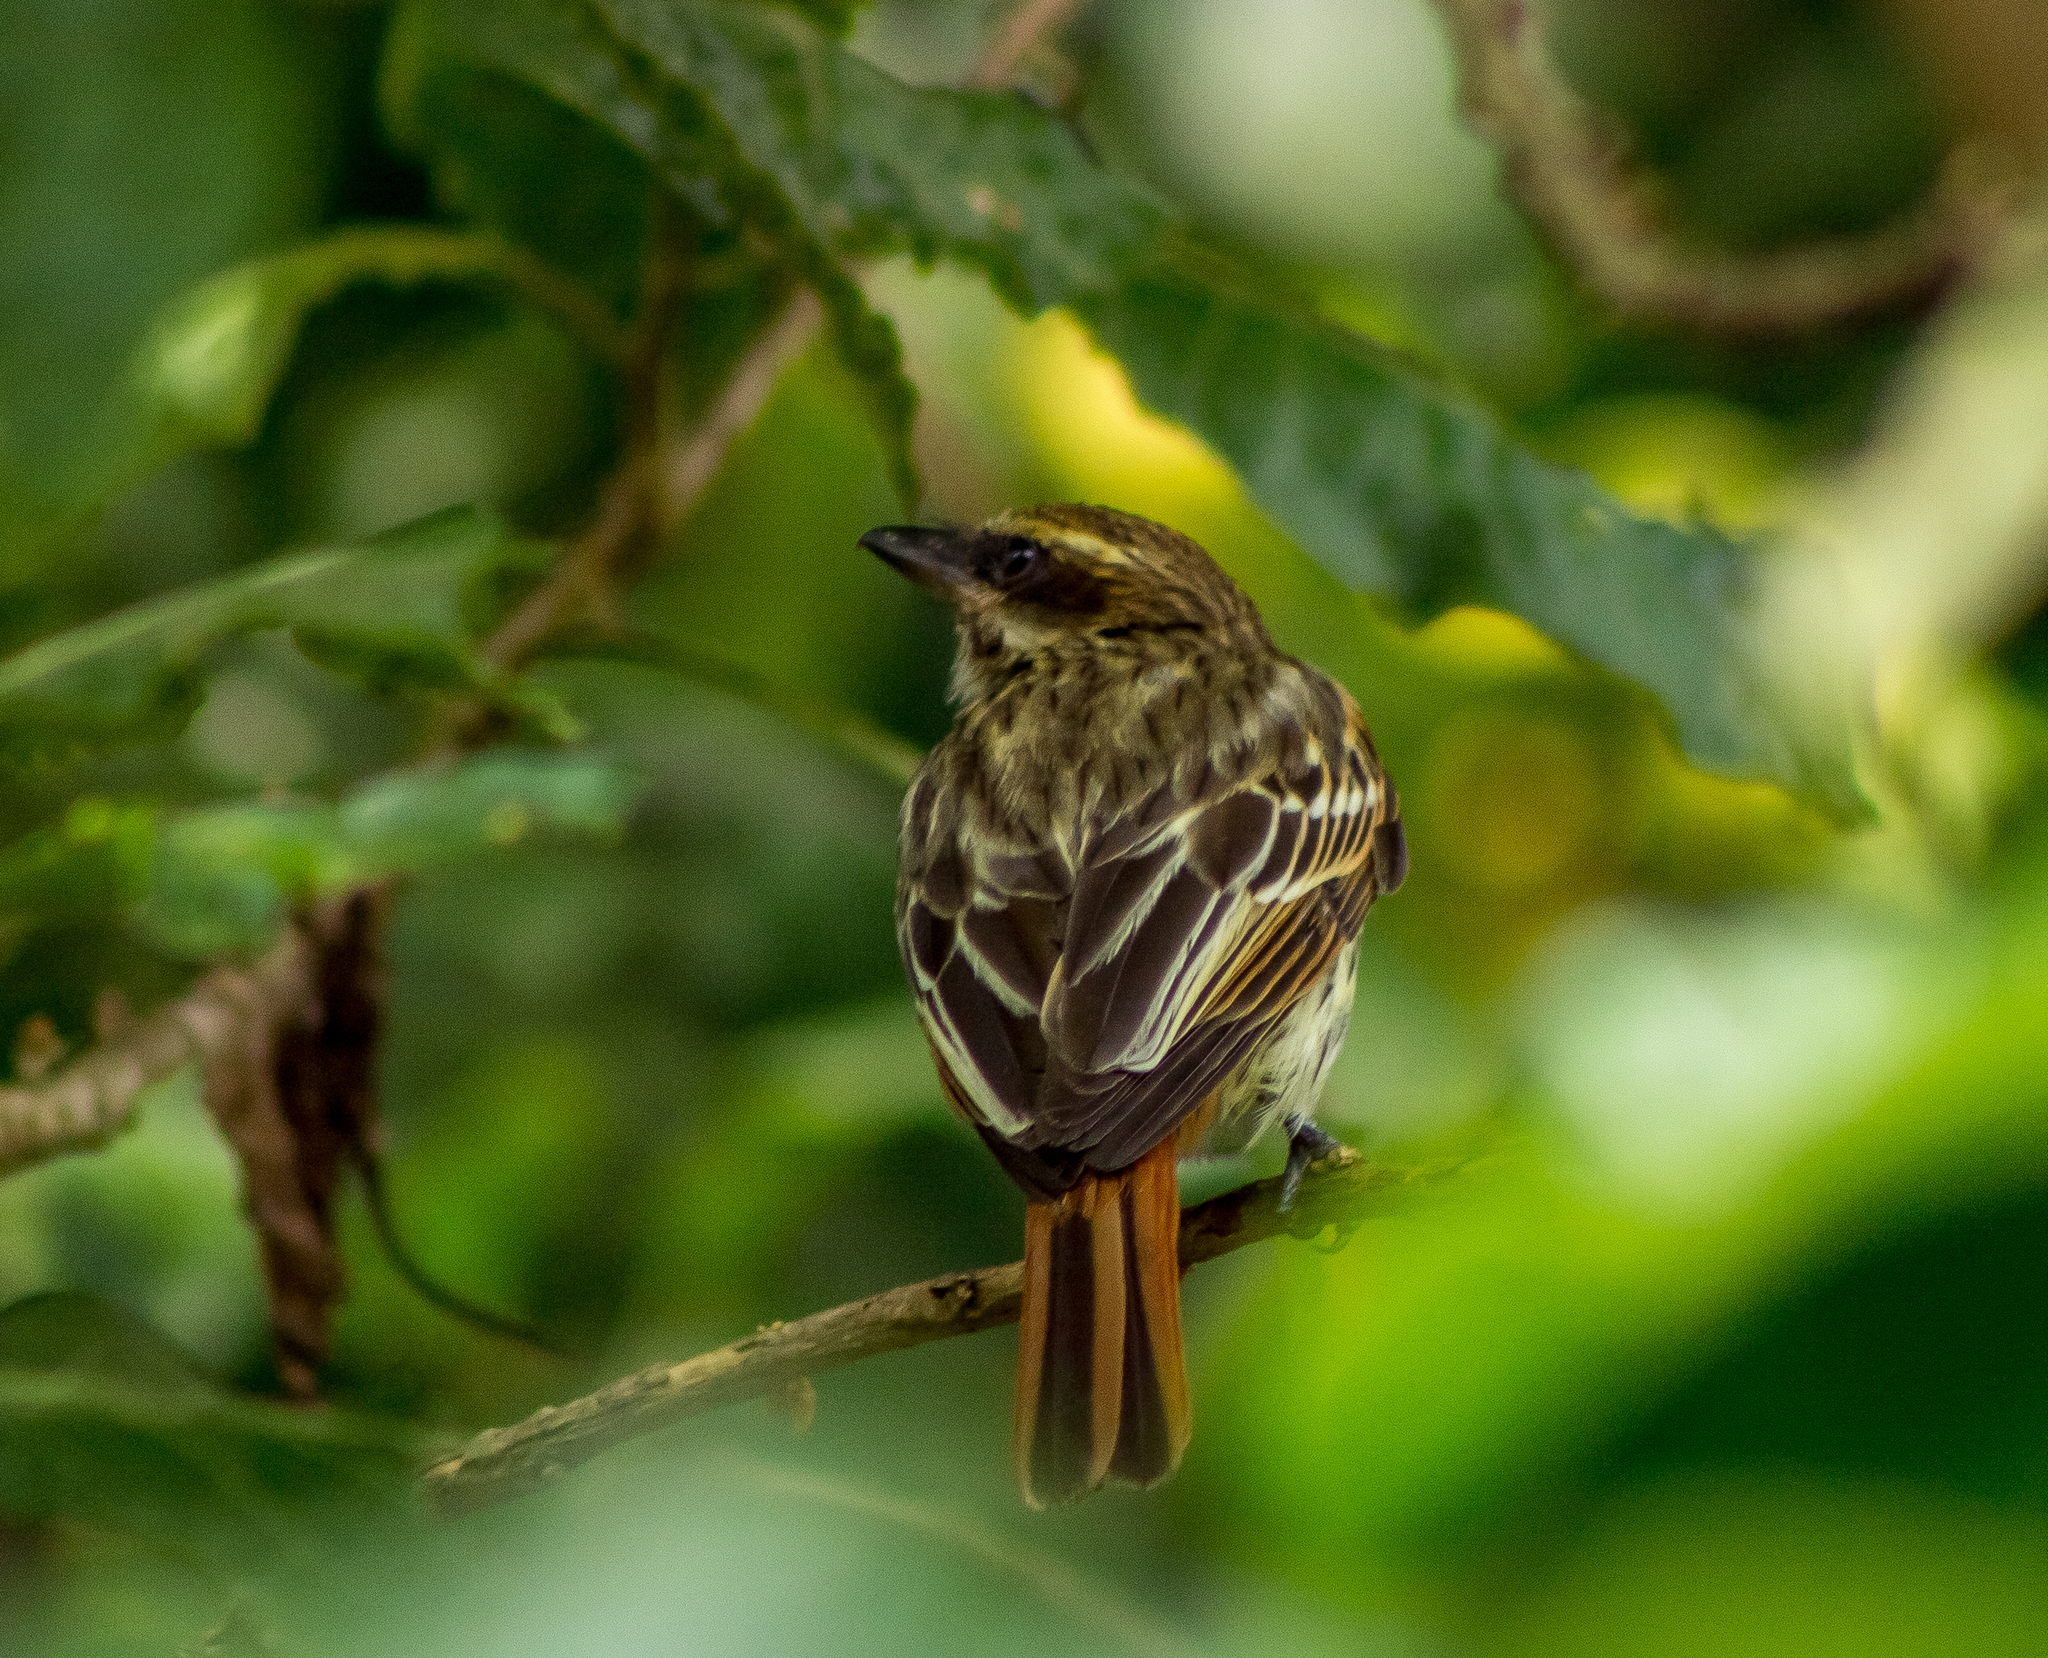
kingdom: Animalia
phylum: Chordata
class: Aves
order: Passeriformes
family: Tyrannidae
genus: Myiodynastes
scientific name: Myiodynastes maculatus
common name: Streaked flycatcher
